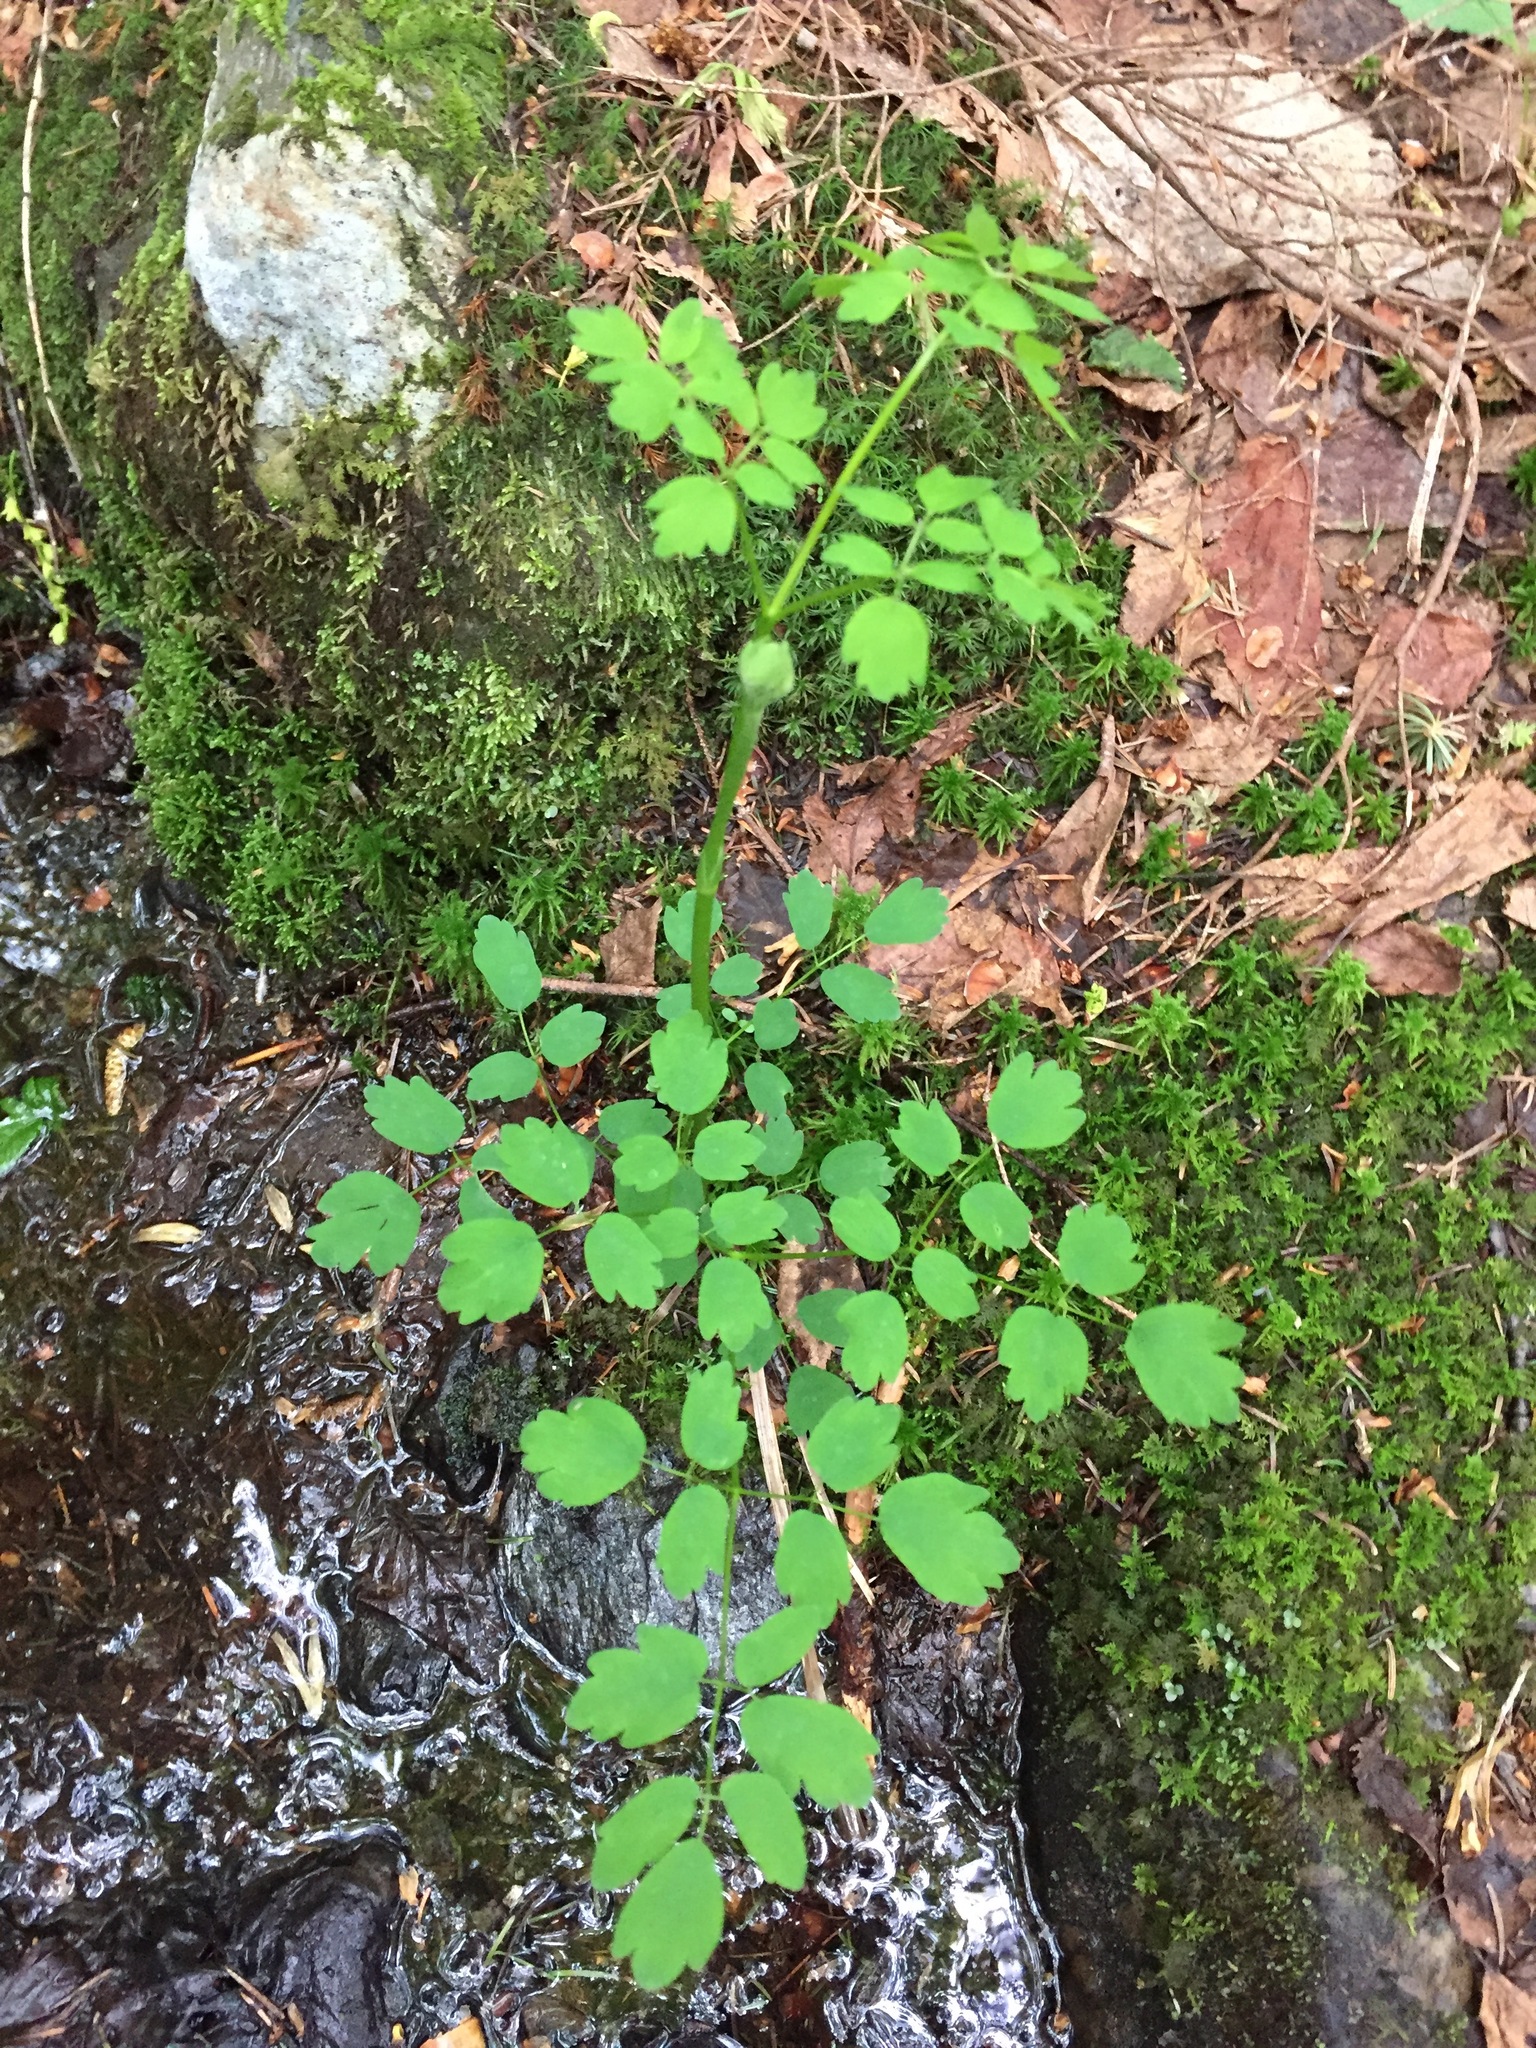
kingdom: Plantae
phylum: Tracheophyta
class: Magnoliopsida
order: Ranunculales
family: Ranunculaceae
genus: Thalictrum
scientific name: Thalictrum dioicum
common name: Early meadow-rue
